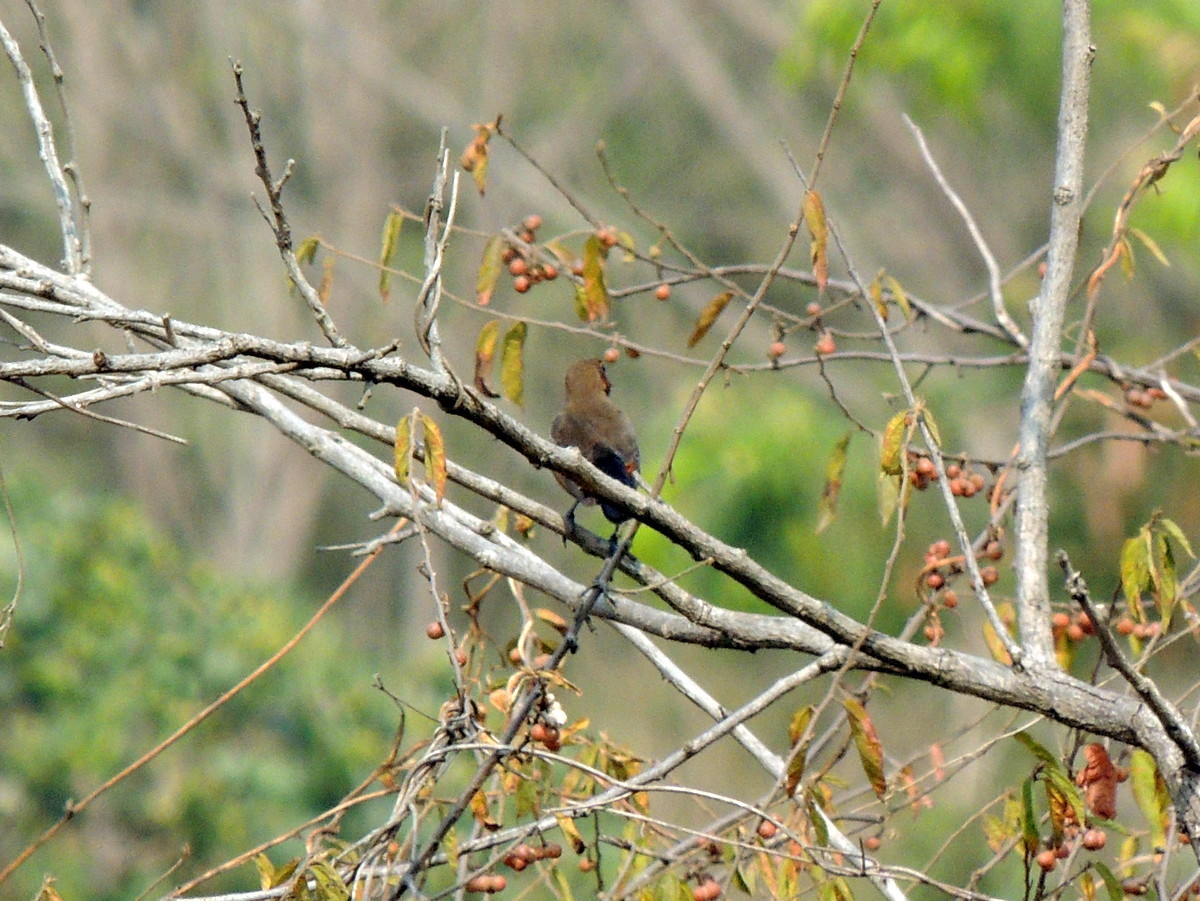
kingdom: Animalia
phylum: Chordata
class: Aves
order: Passeriformes
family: Muscicapidae
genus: Saxicoloides
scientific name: Saxicoloides fulicatus
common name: Indian robin
